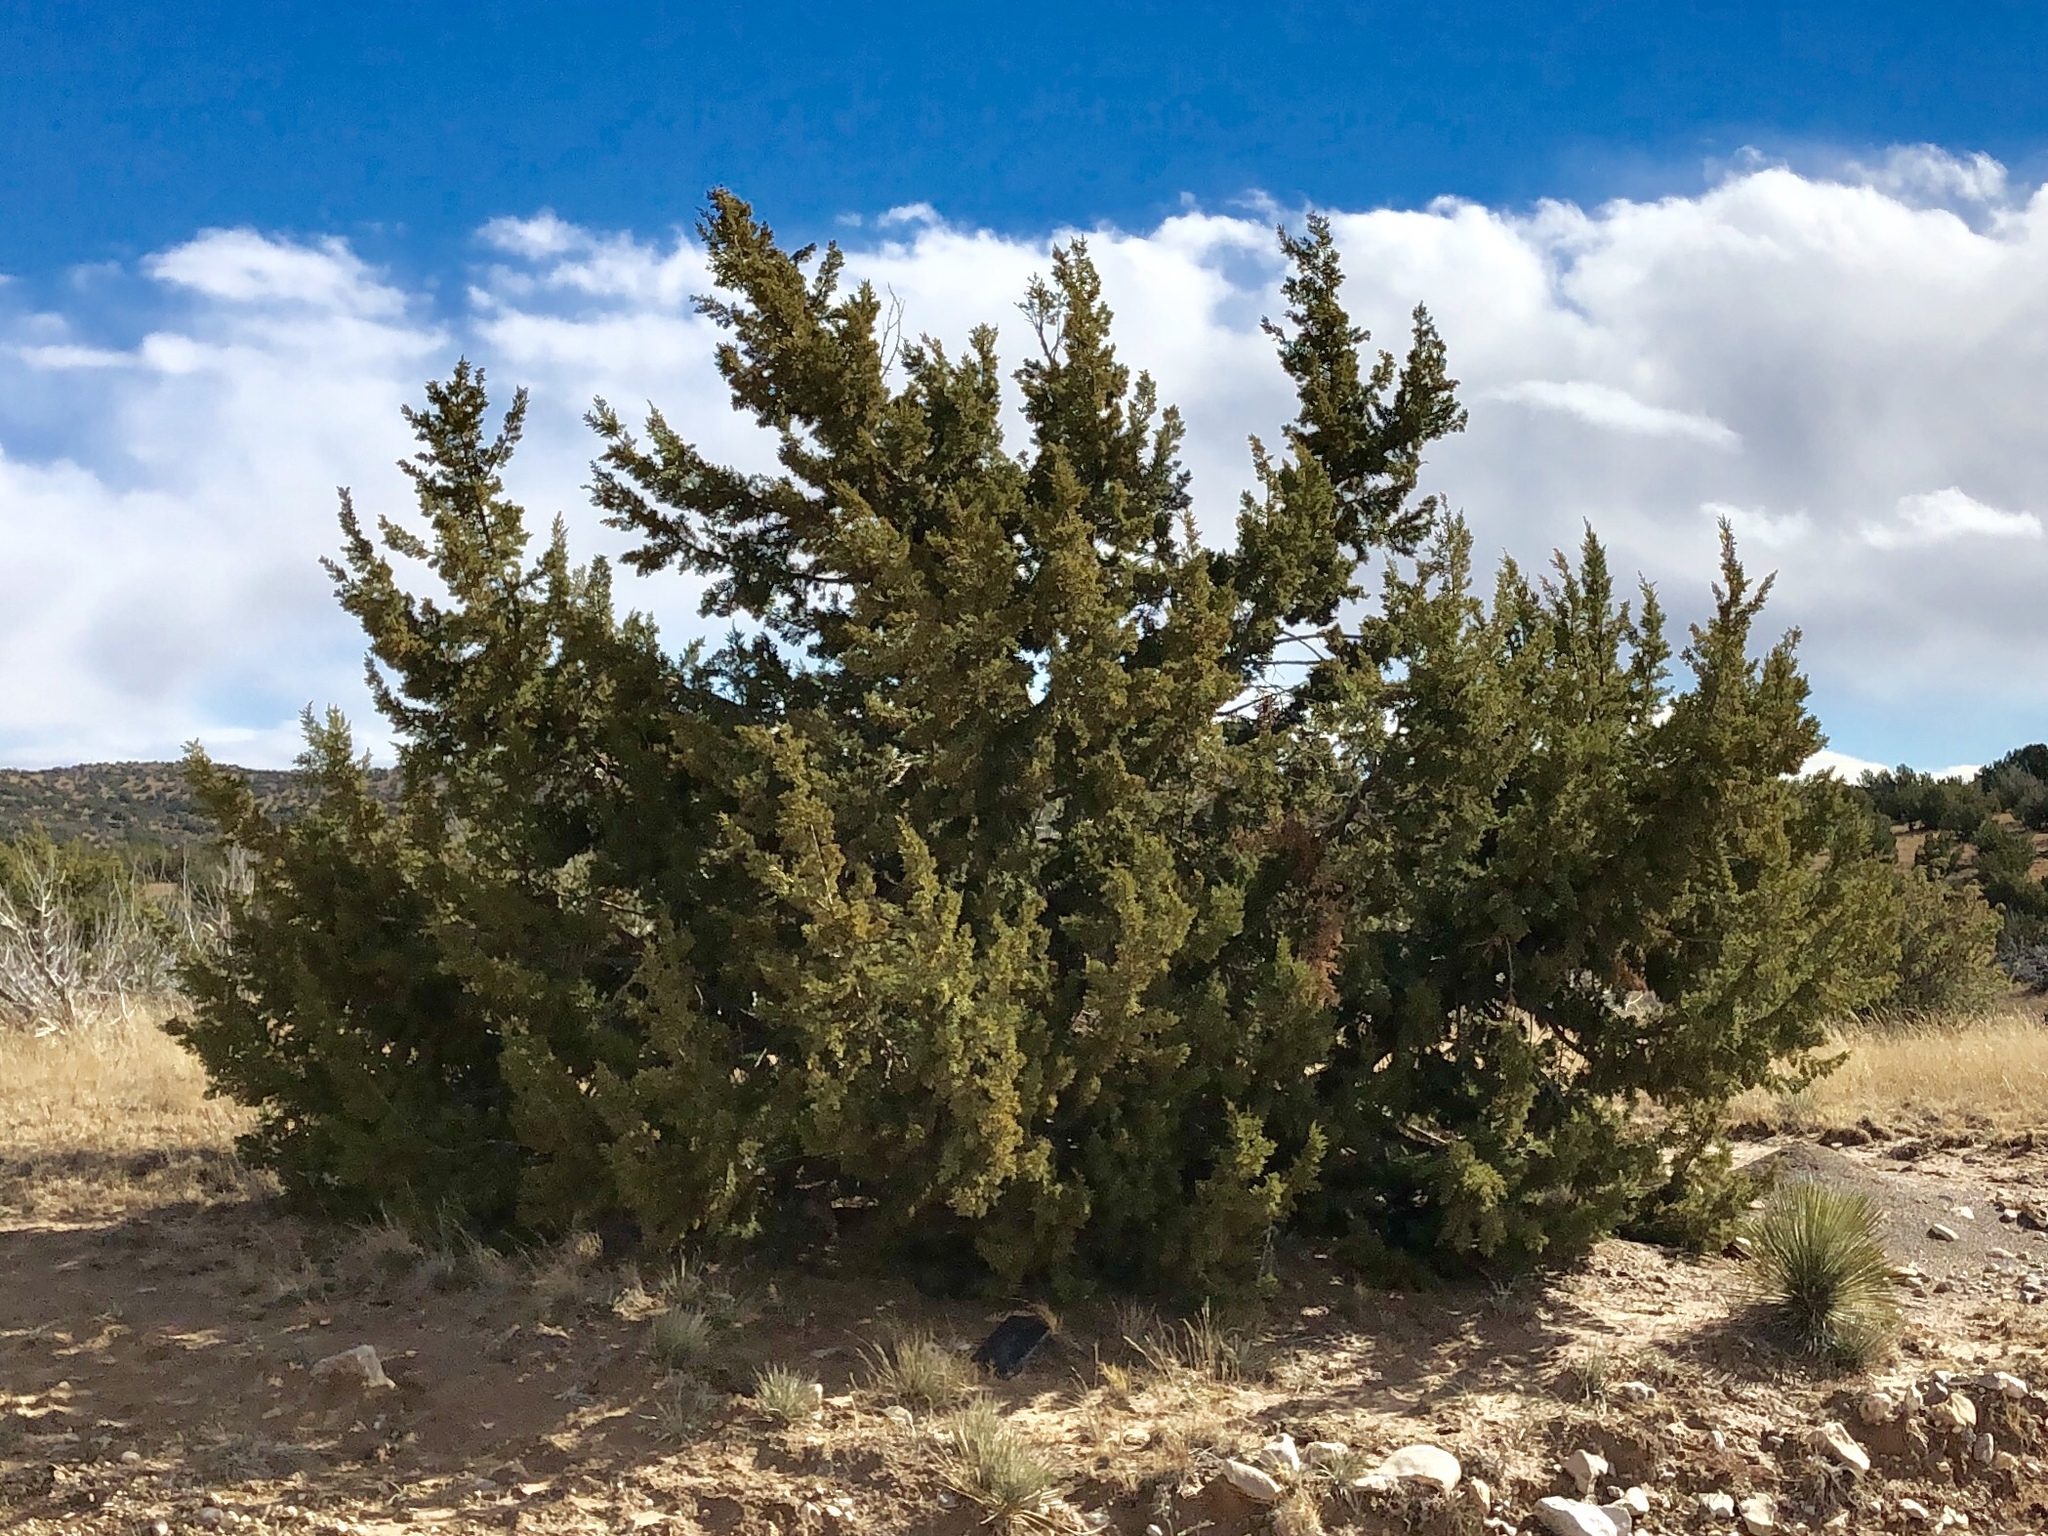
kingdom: Plantae
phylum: Tracheophyta
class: Pinopsida
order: Pinales
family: Cupressaceae
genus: Juniperus
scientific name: Juniperus monosperma
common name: One-seed juniper
